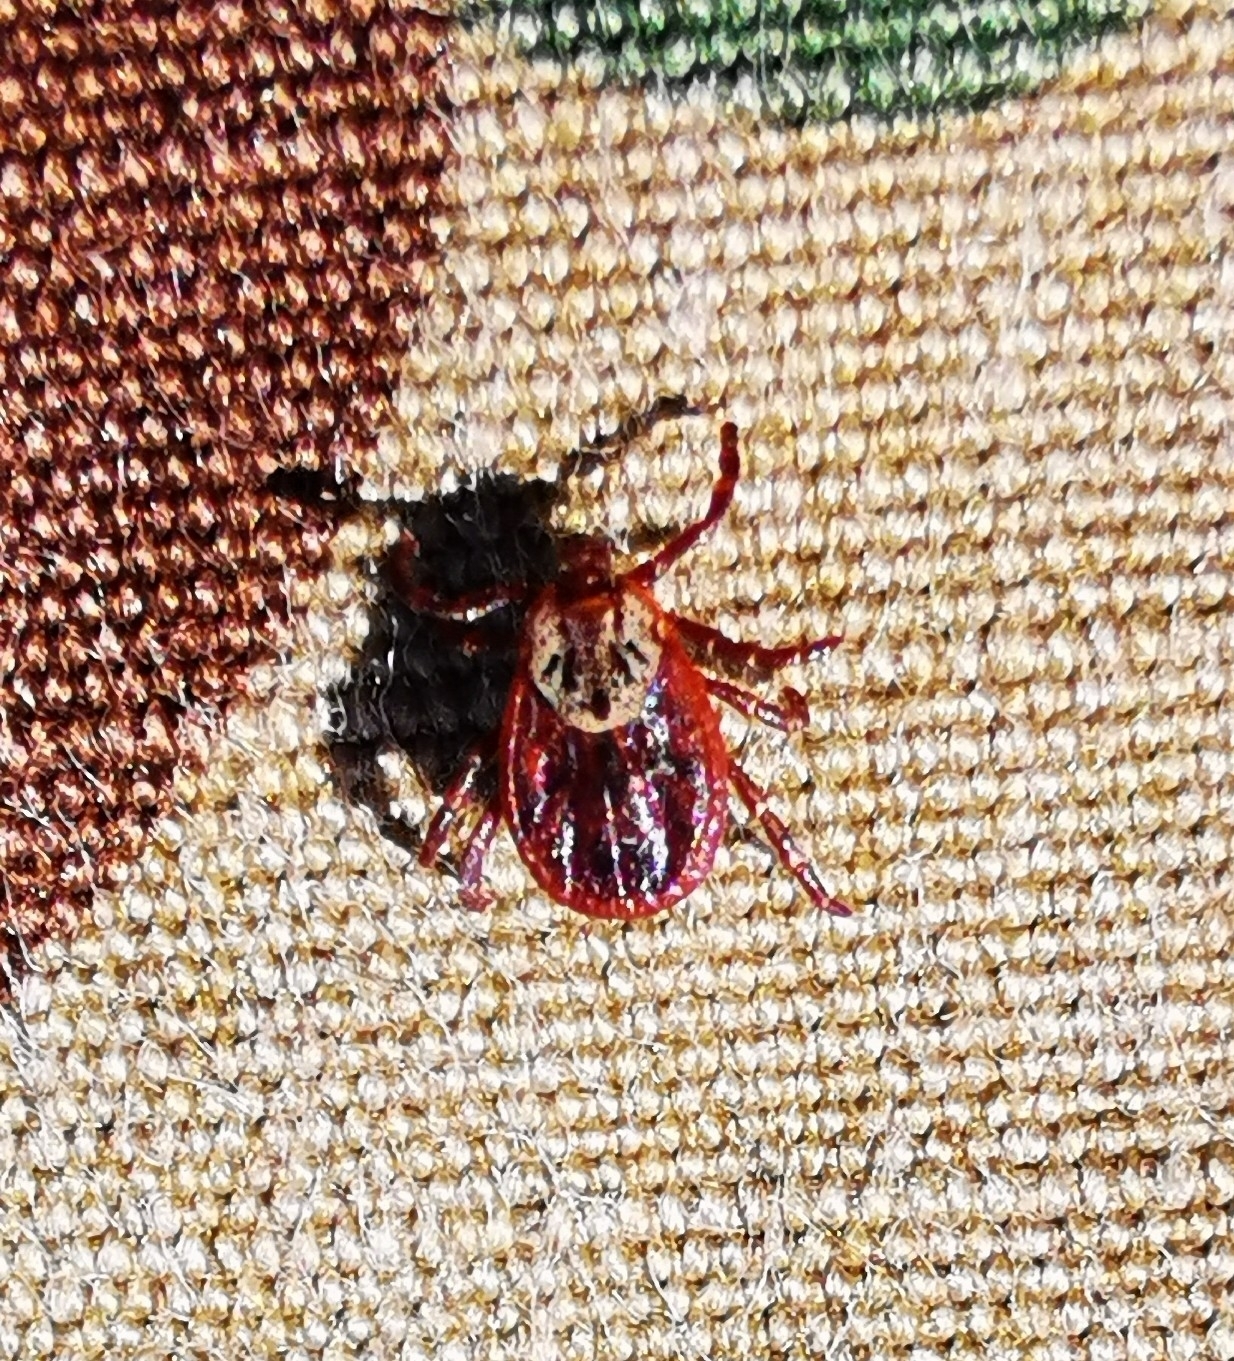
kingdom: Animalia
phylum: Arthropoda
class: Arachnida
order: Ixodida
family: Ixodidae
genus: Dermacentor
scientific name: Dermacentor reticulatus
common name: Ornate cow tick
